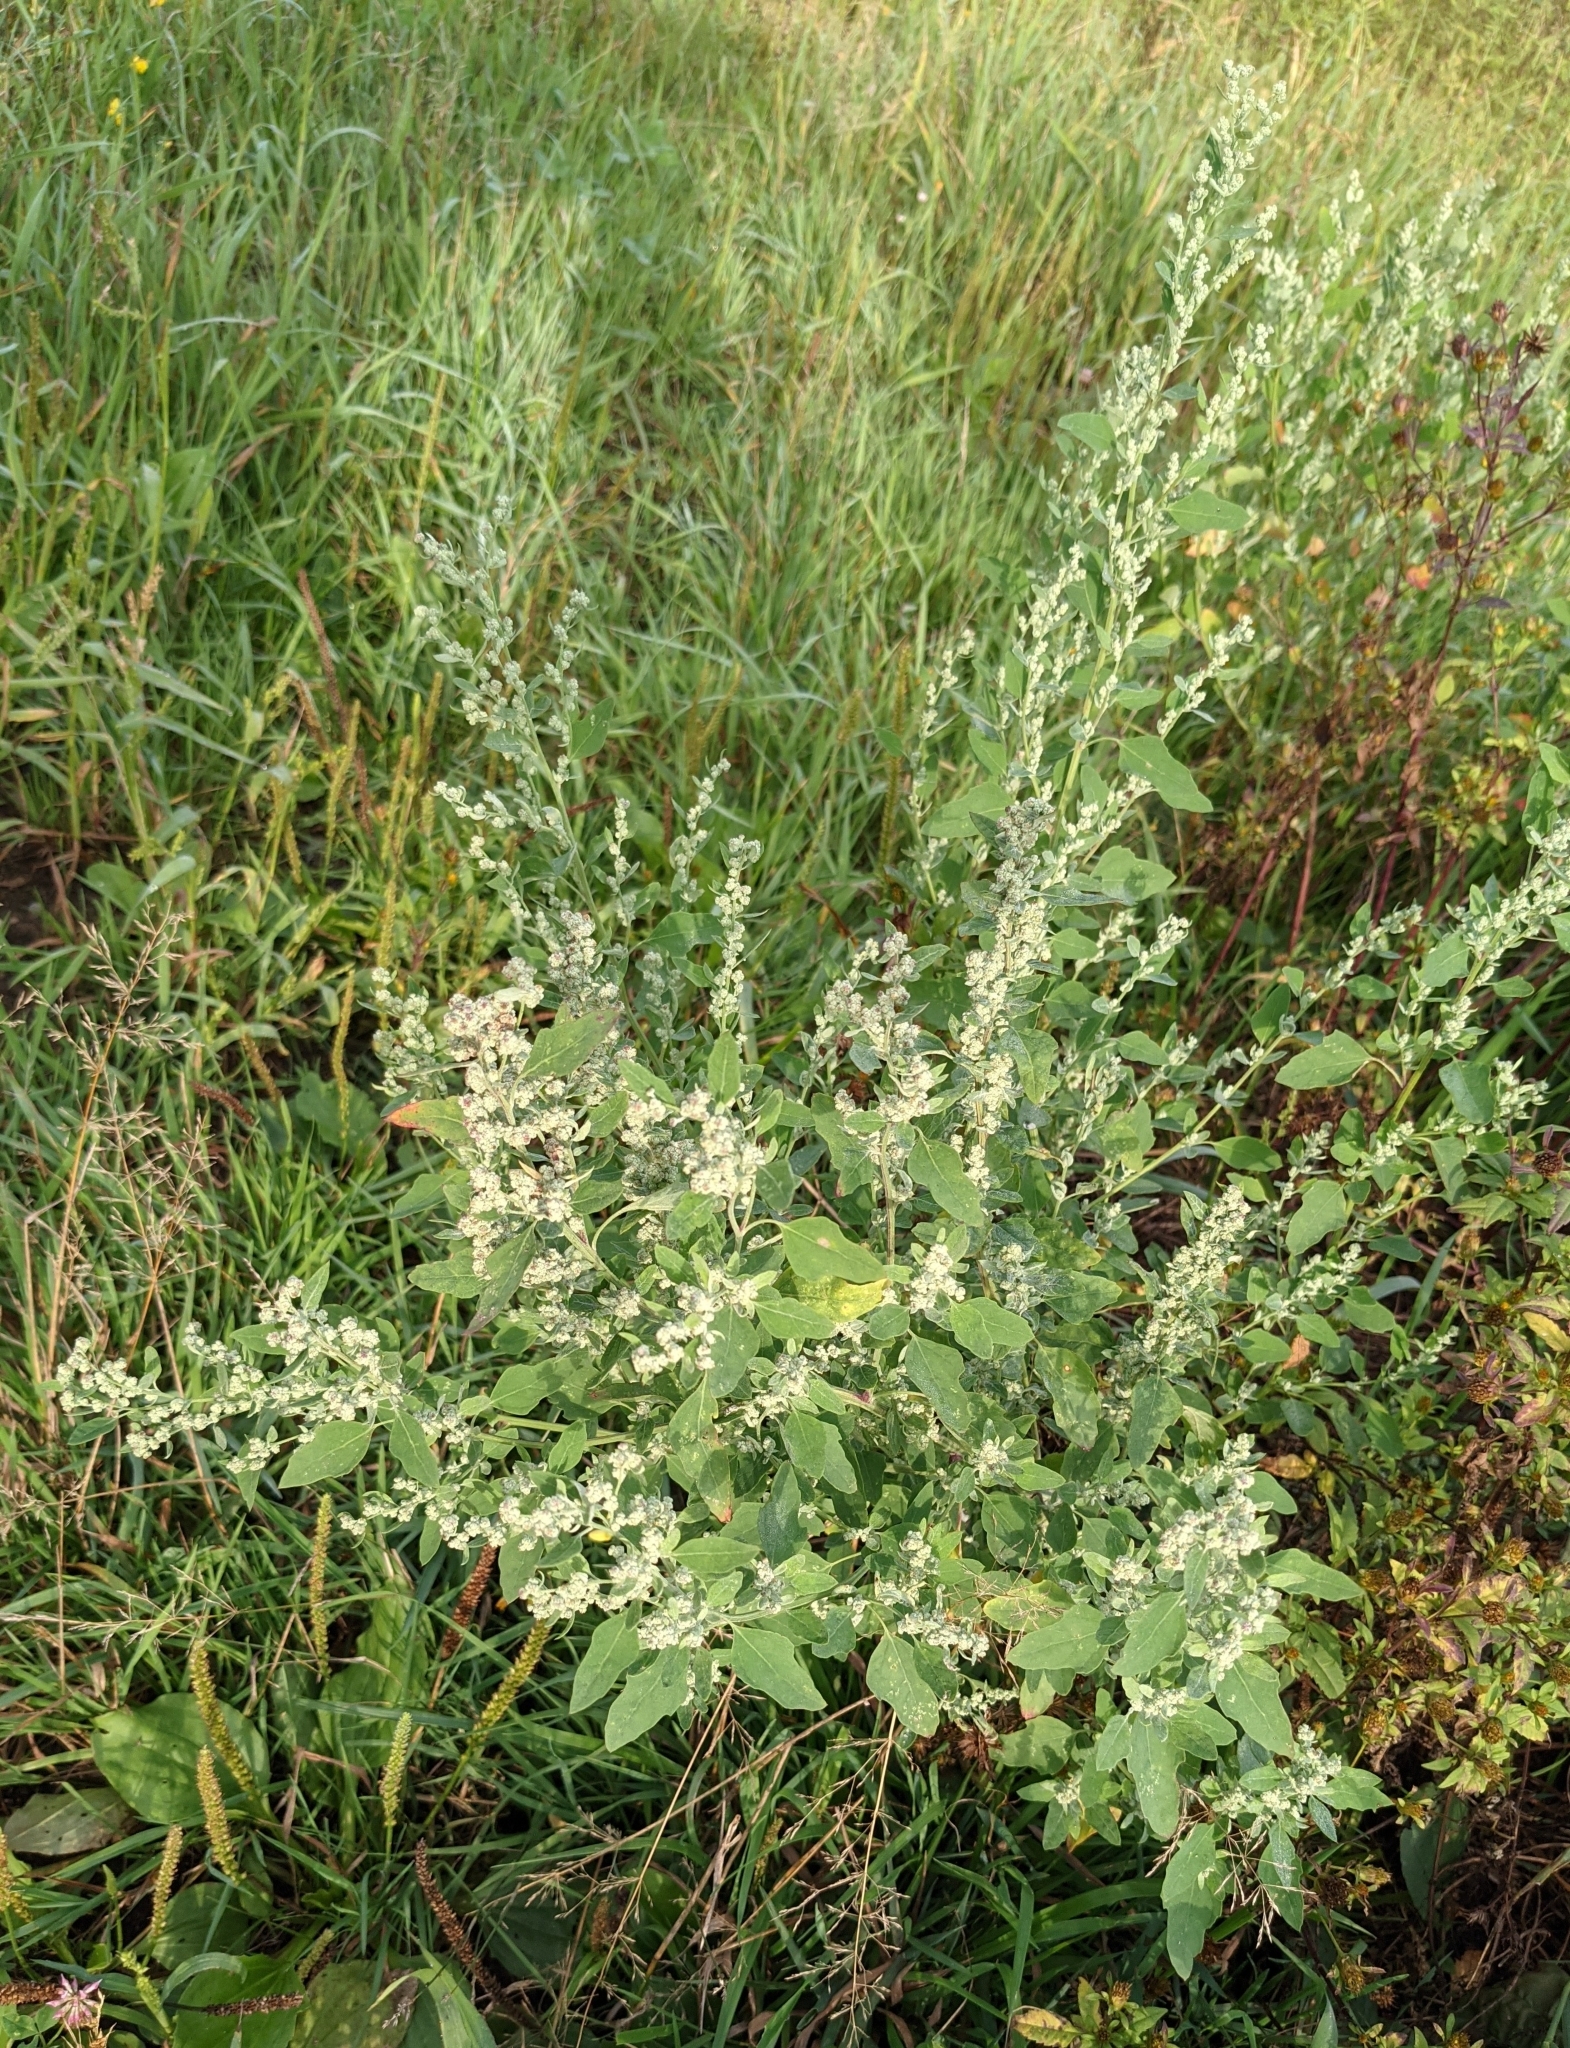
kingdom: Plantae
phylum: Tracheophyta
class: Magnoliopsida
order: Caryophyllales
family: Amaranthaceae
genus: Chenopodium
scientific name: Chenopodium album
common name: Fat-hen
